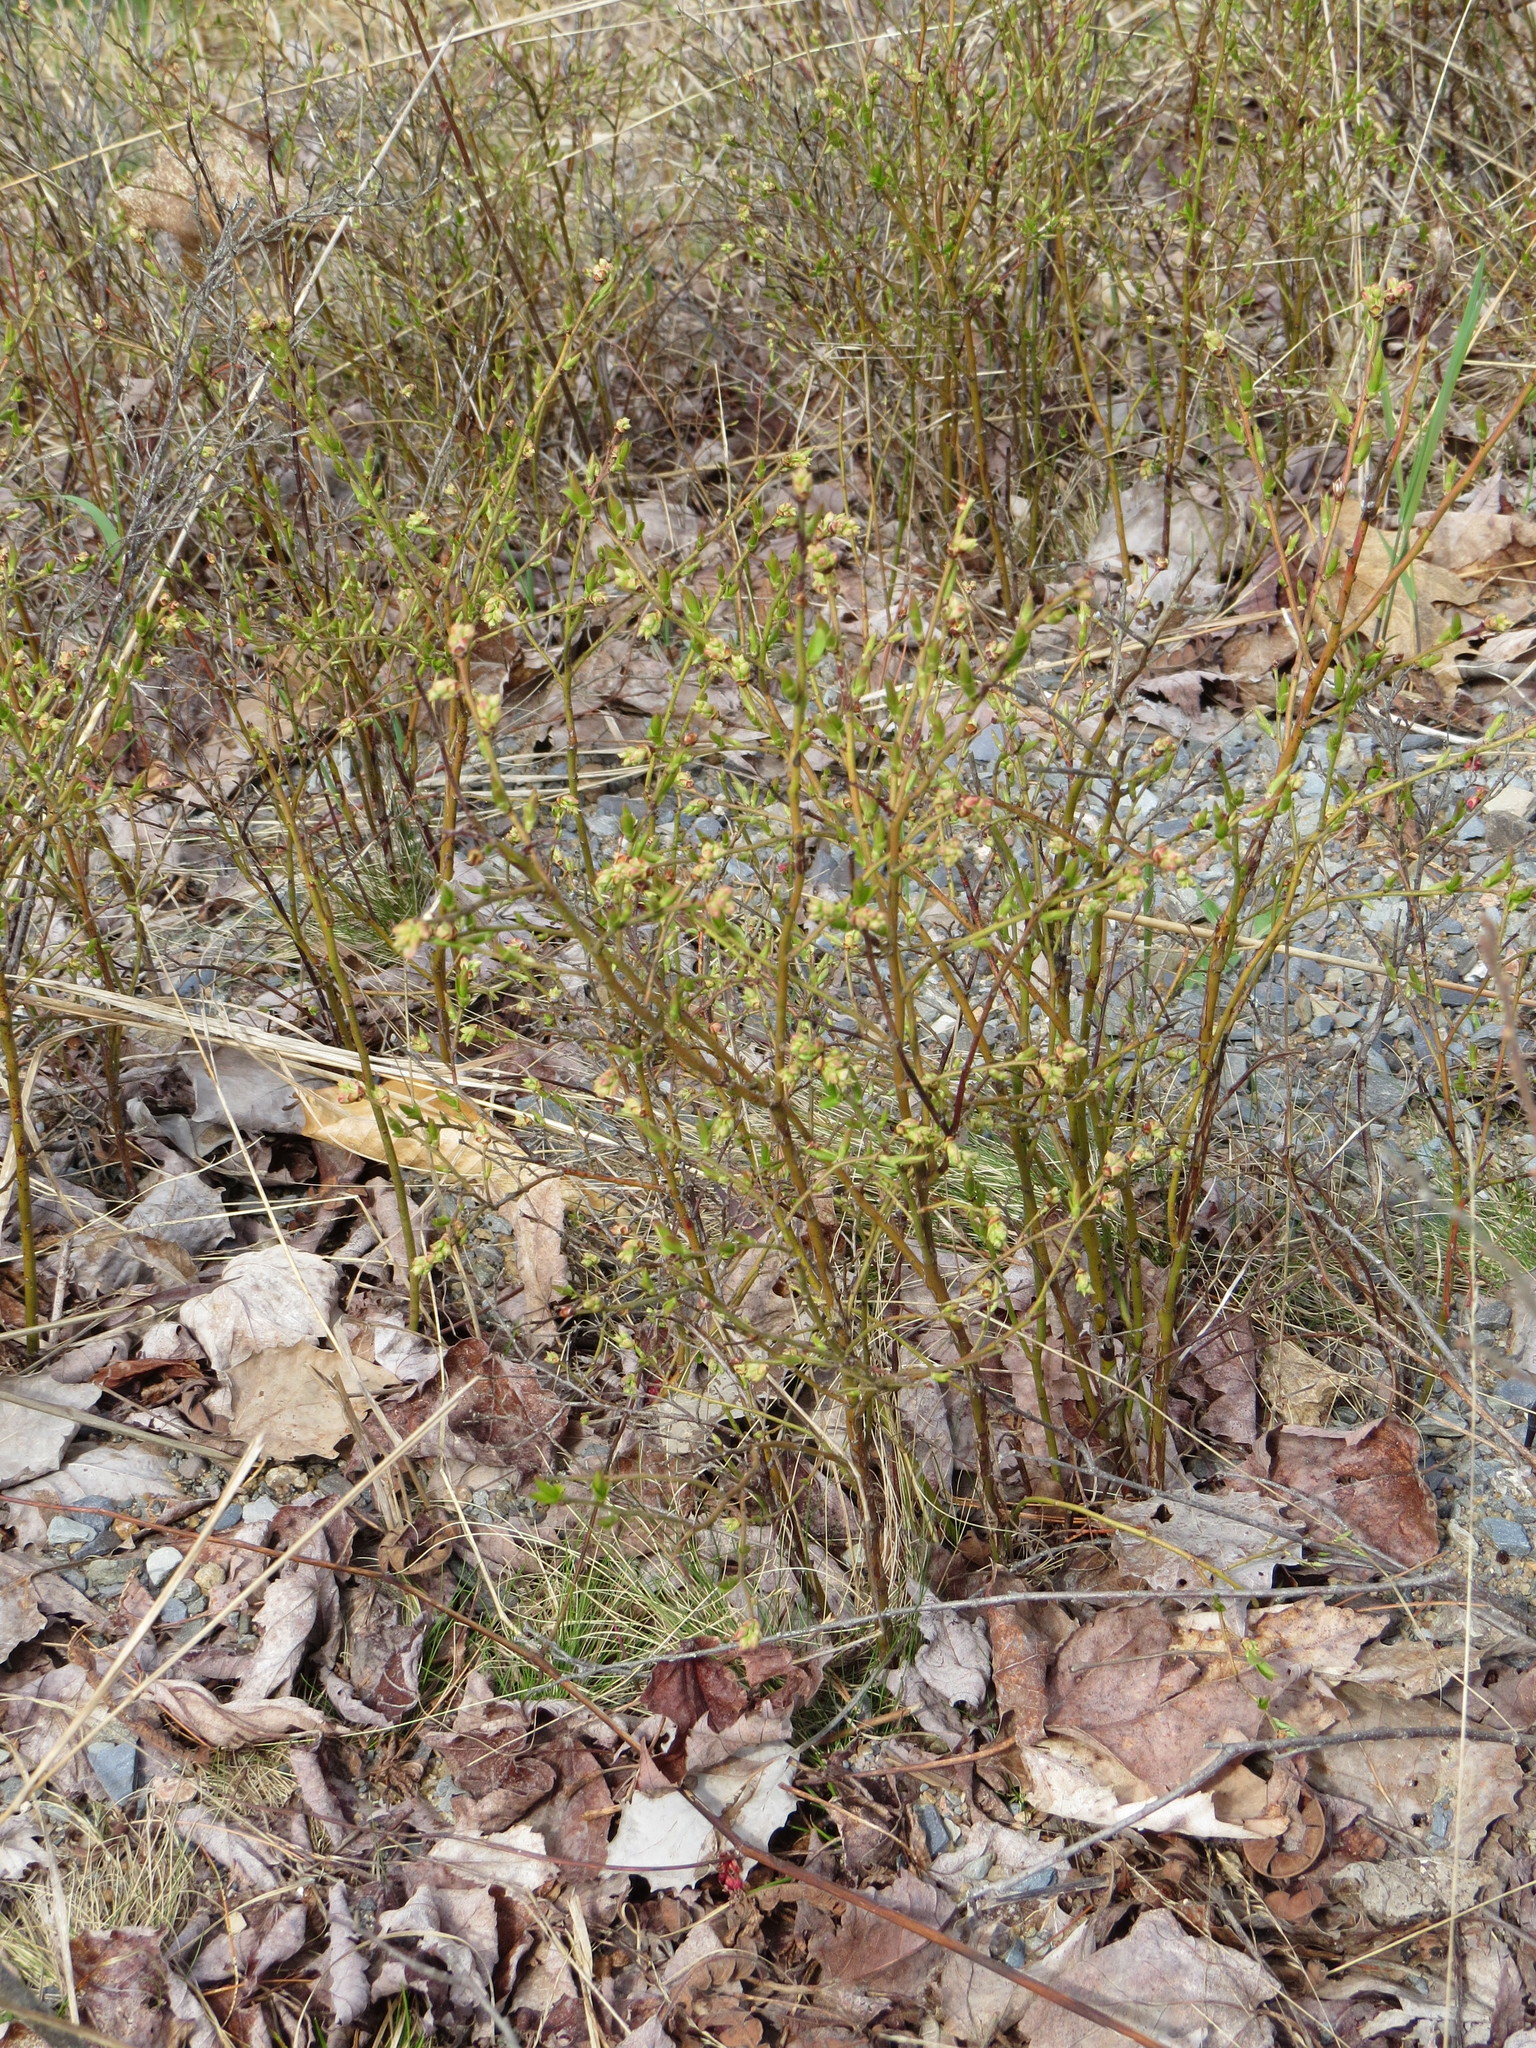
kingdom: Plantae
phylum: Tracheophyta
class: Magnoliopsida
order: Ericales
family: Ericaceae
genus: Vaccinium
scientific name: Vaccinium angustifolium
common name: Early lowbush blueberry
